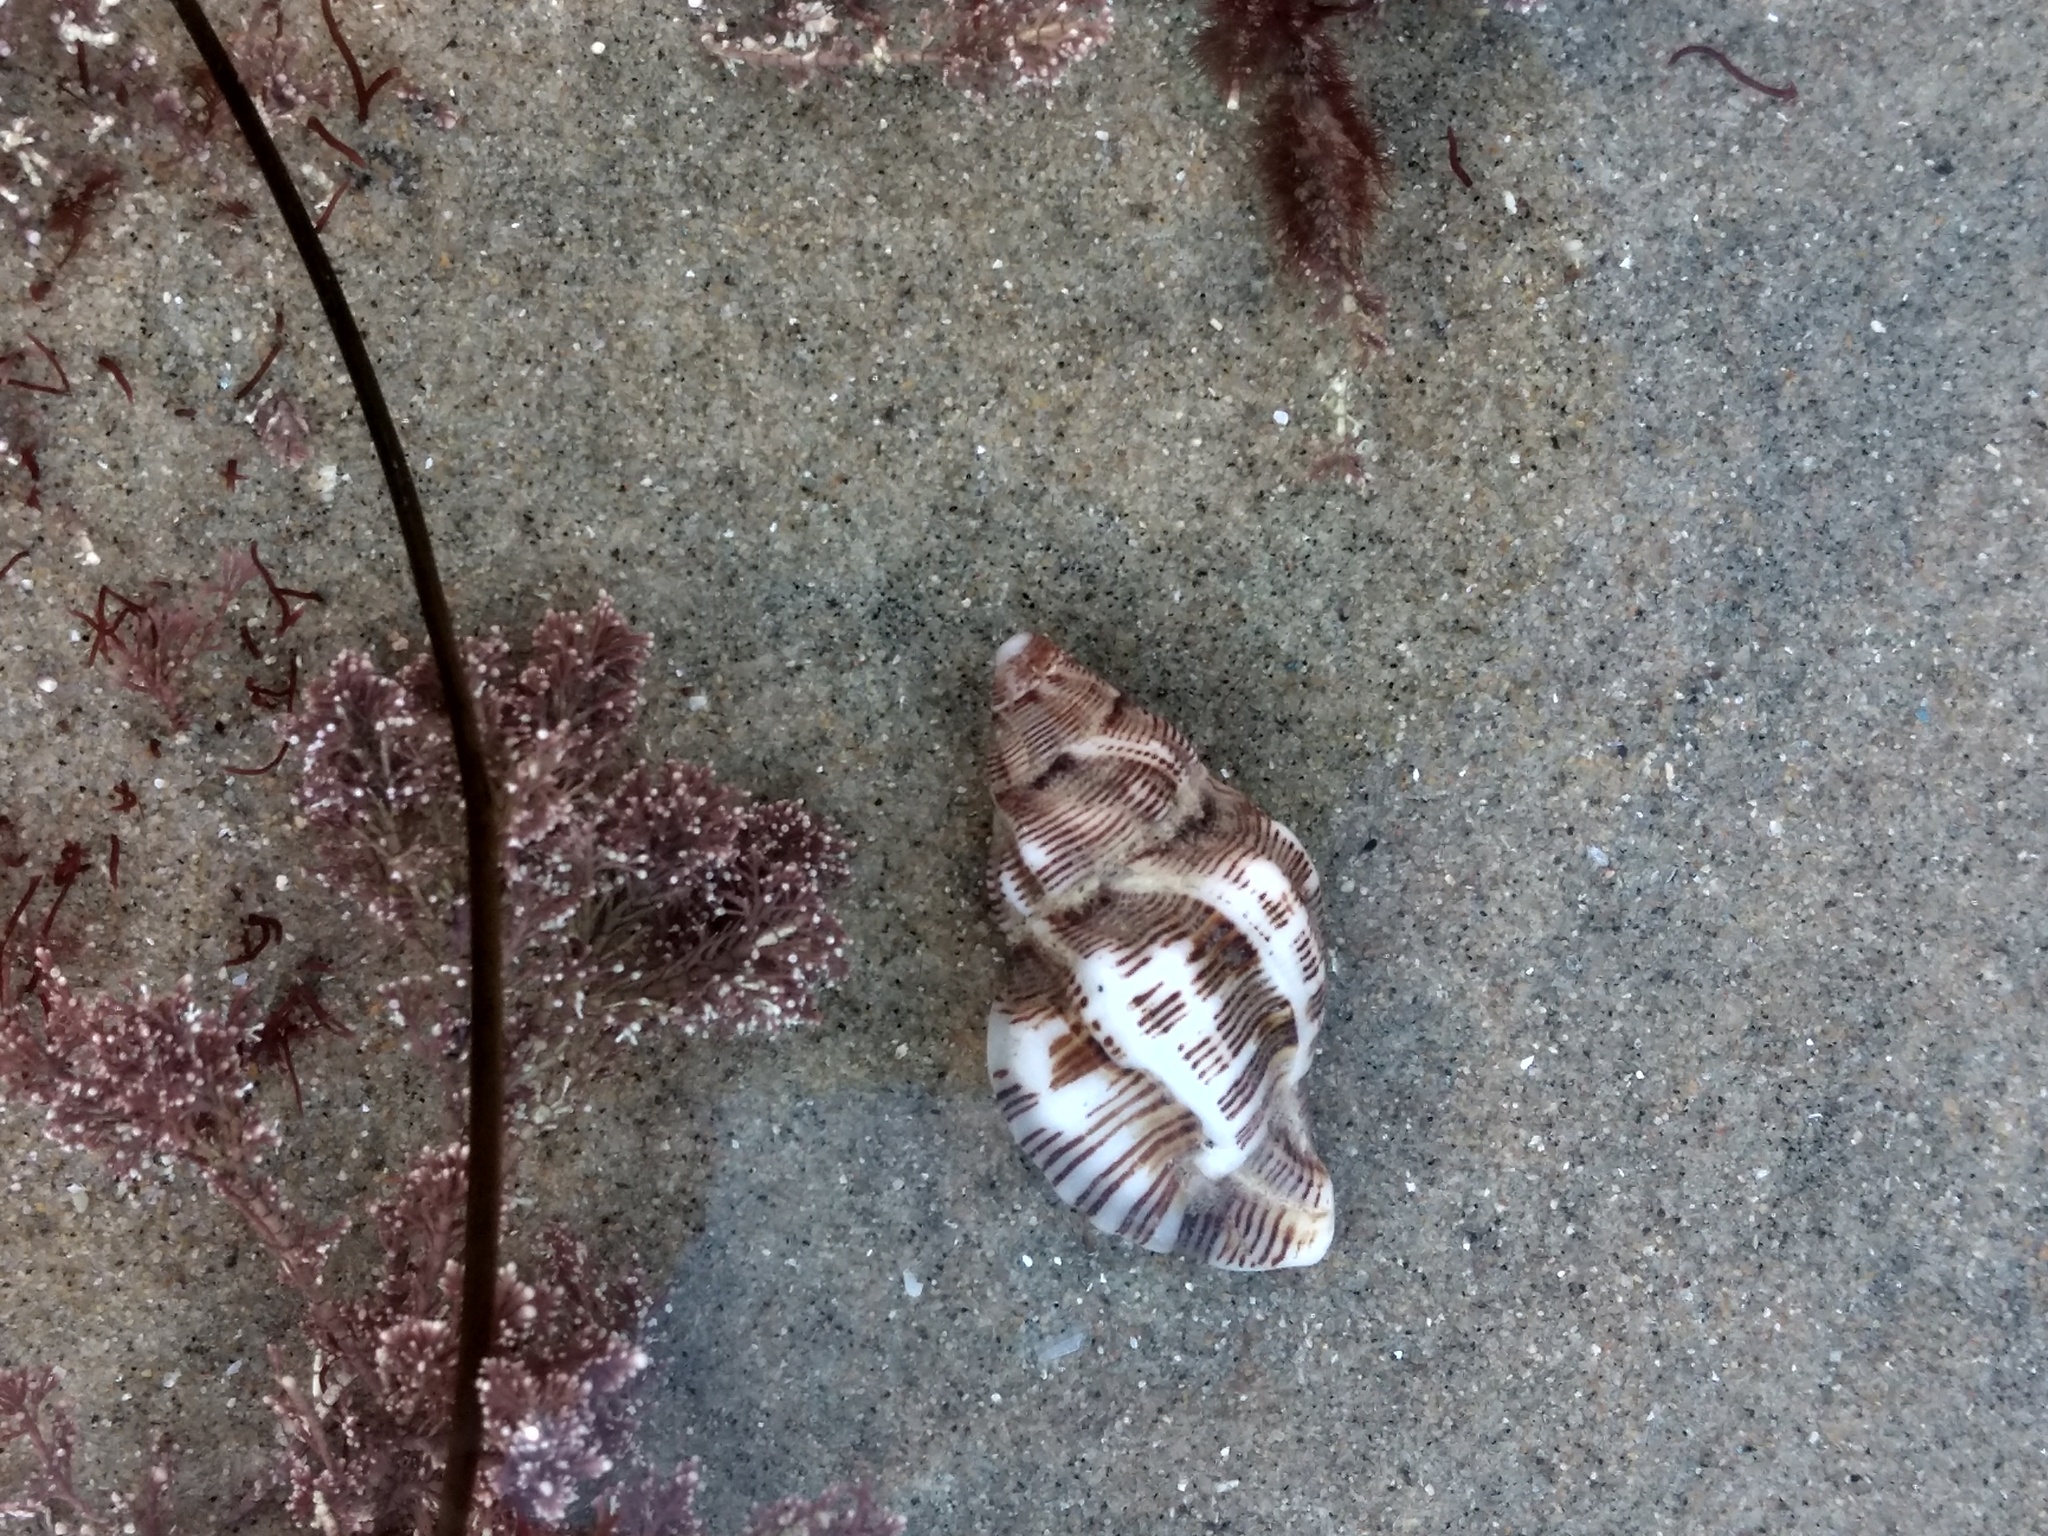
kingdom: Animalia
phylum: Mollusca
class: Gastropoda
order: Neogastropoda
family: Muricidae
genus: Roperia
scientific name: Roperia poulsoni
